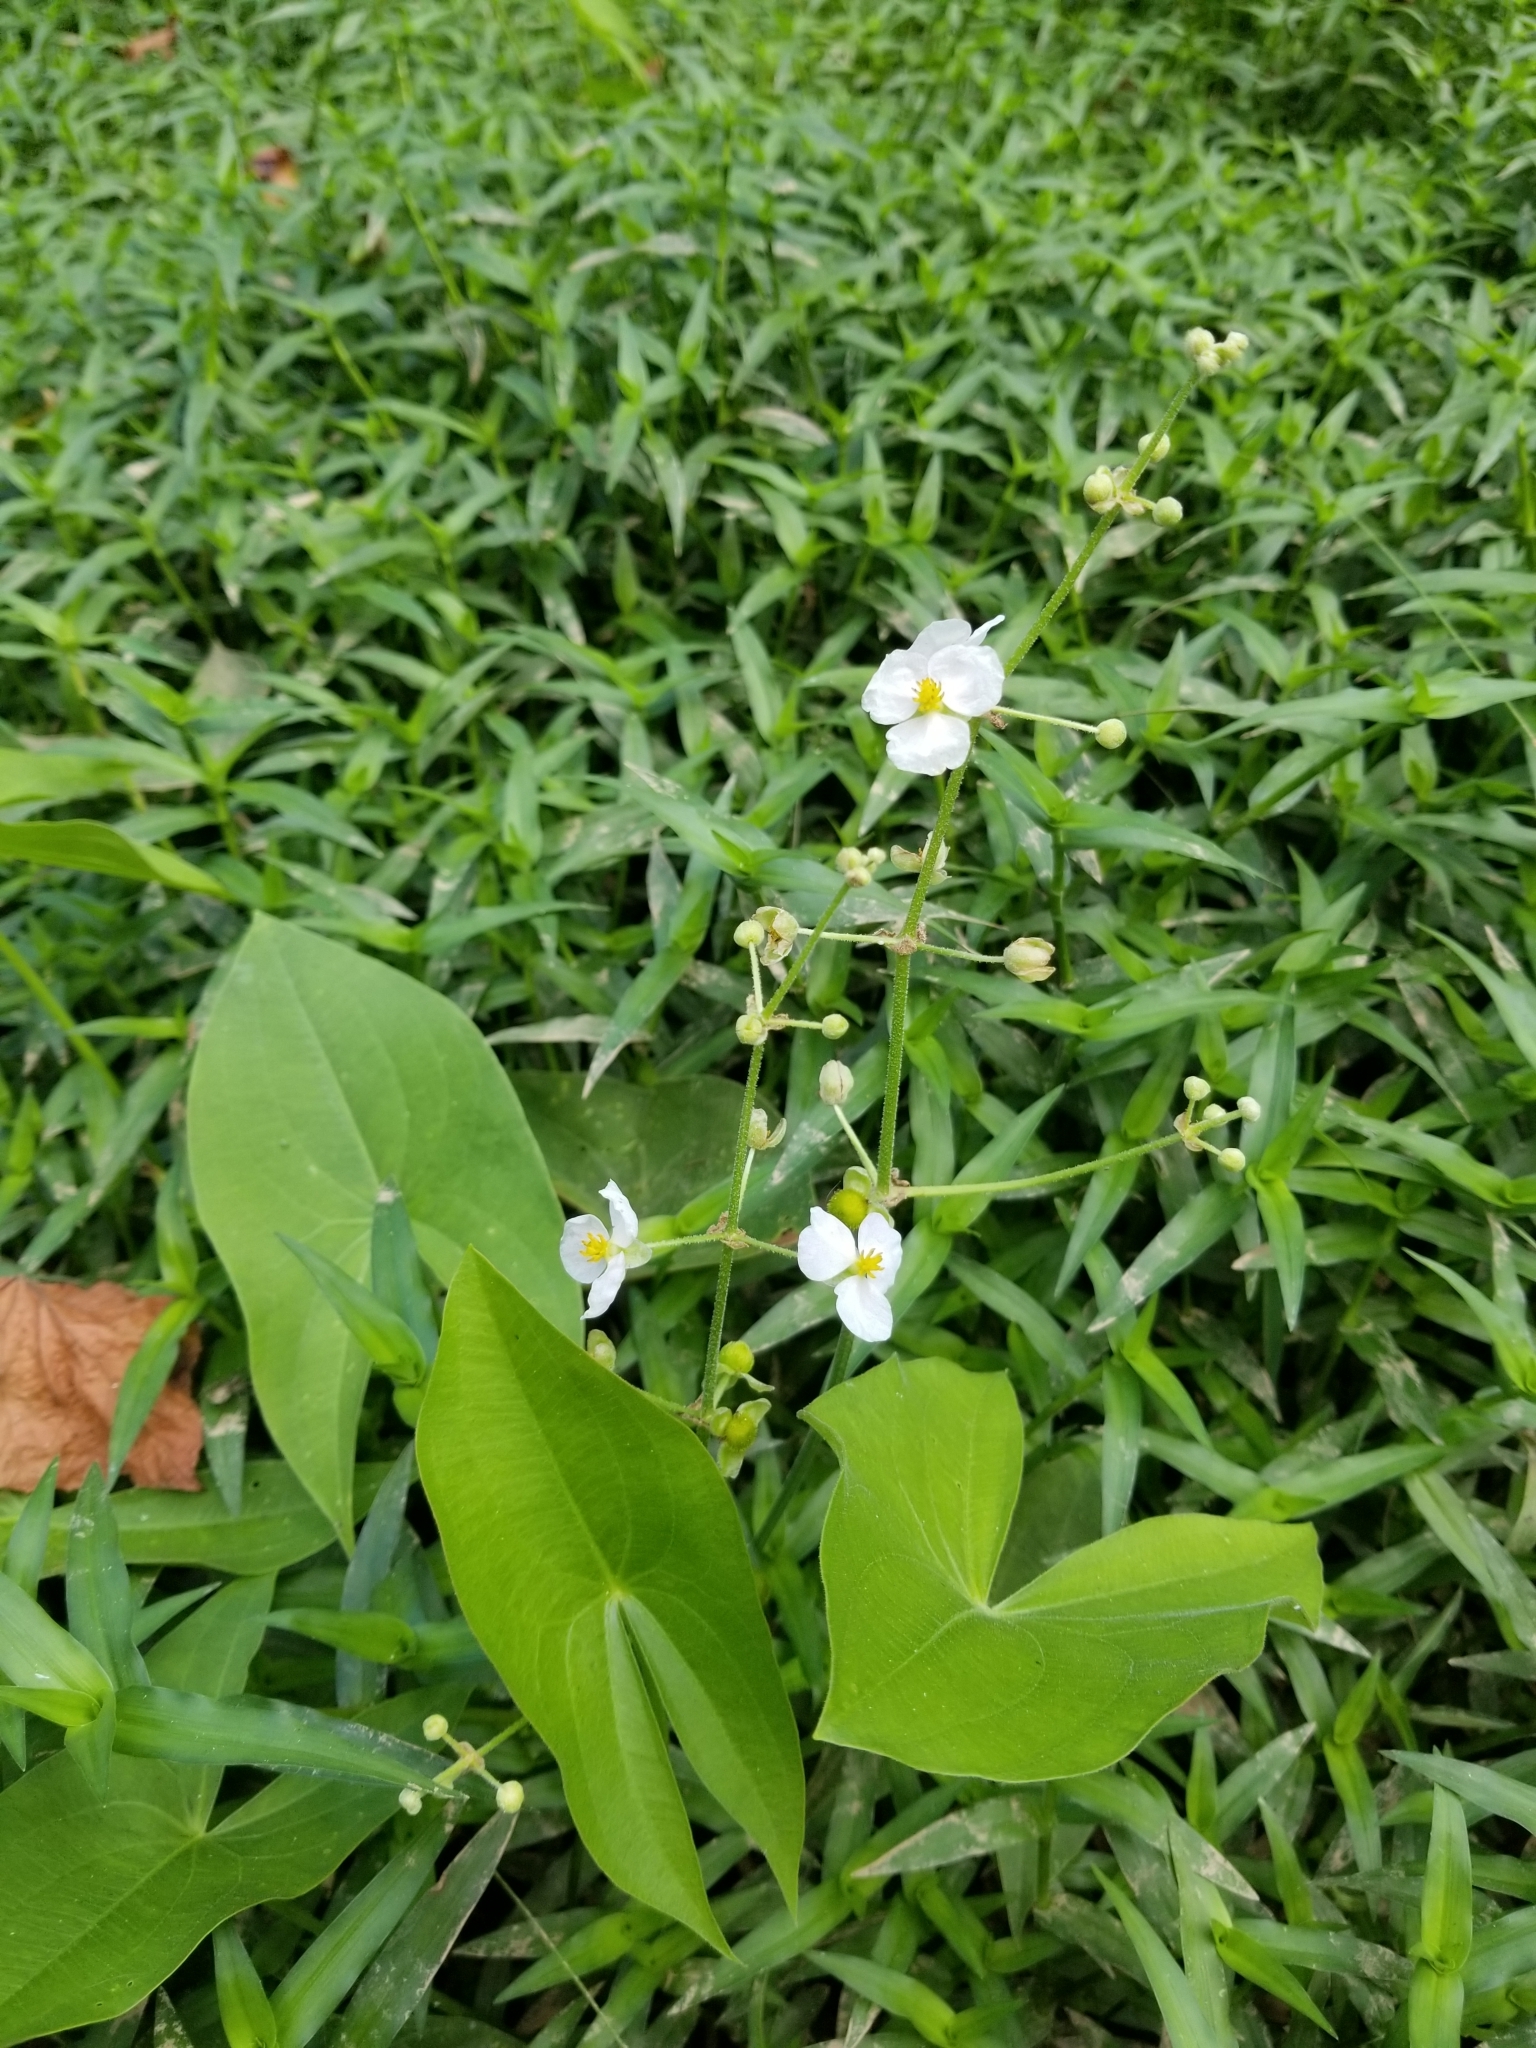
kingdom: Plantae
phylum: Tracheophyta
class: Liliopsida
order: Alismatales
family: Alismataceae
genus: Sagittaria
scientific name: Sagittaria latifolia
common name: Duck-potato
